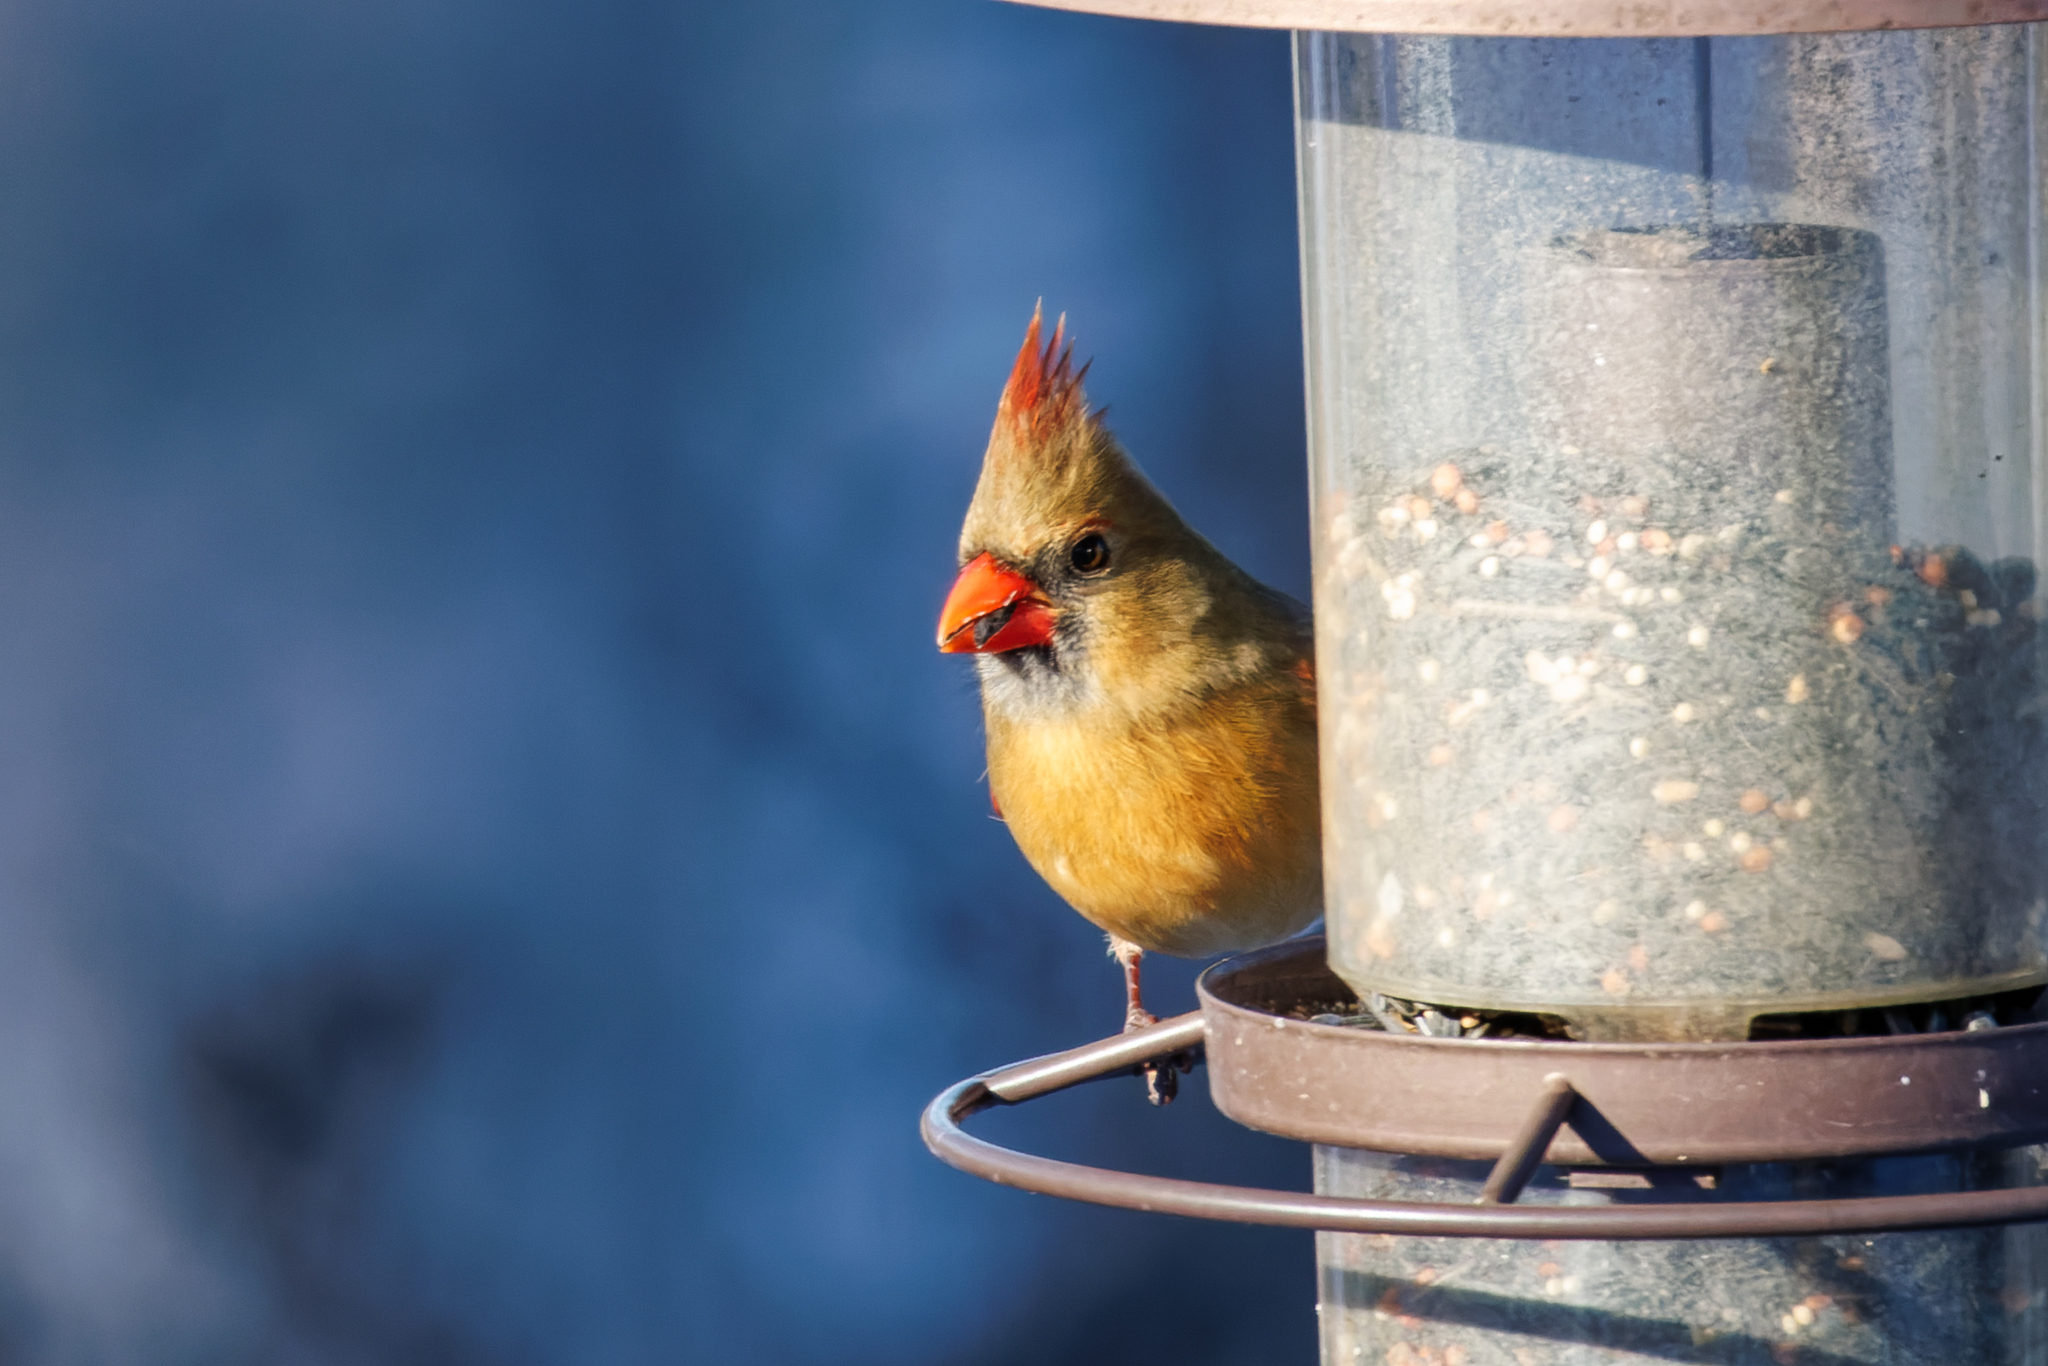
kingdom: Animalia
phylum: Chordata
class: Aves
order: Passeriformes
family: Cardinalidae
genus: Cardinalis
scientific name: Cardinalis cardinalis
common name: Northern cardinal
